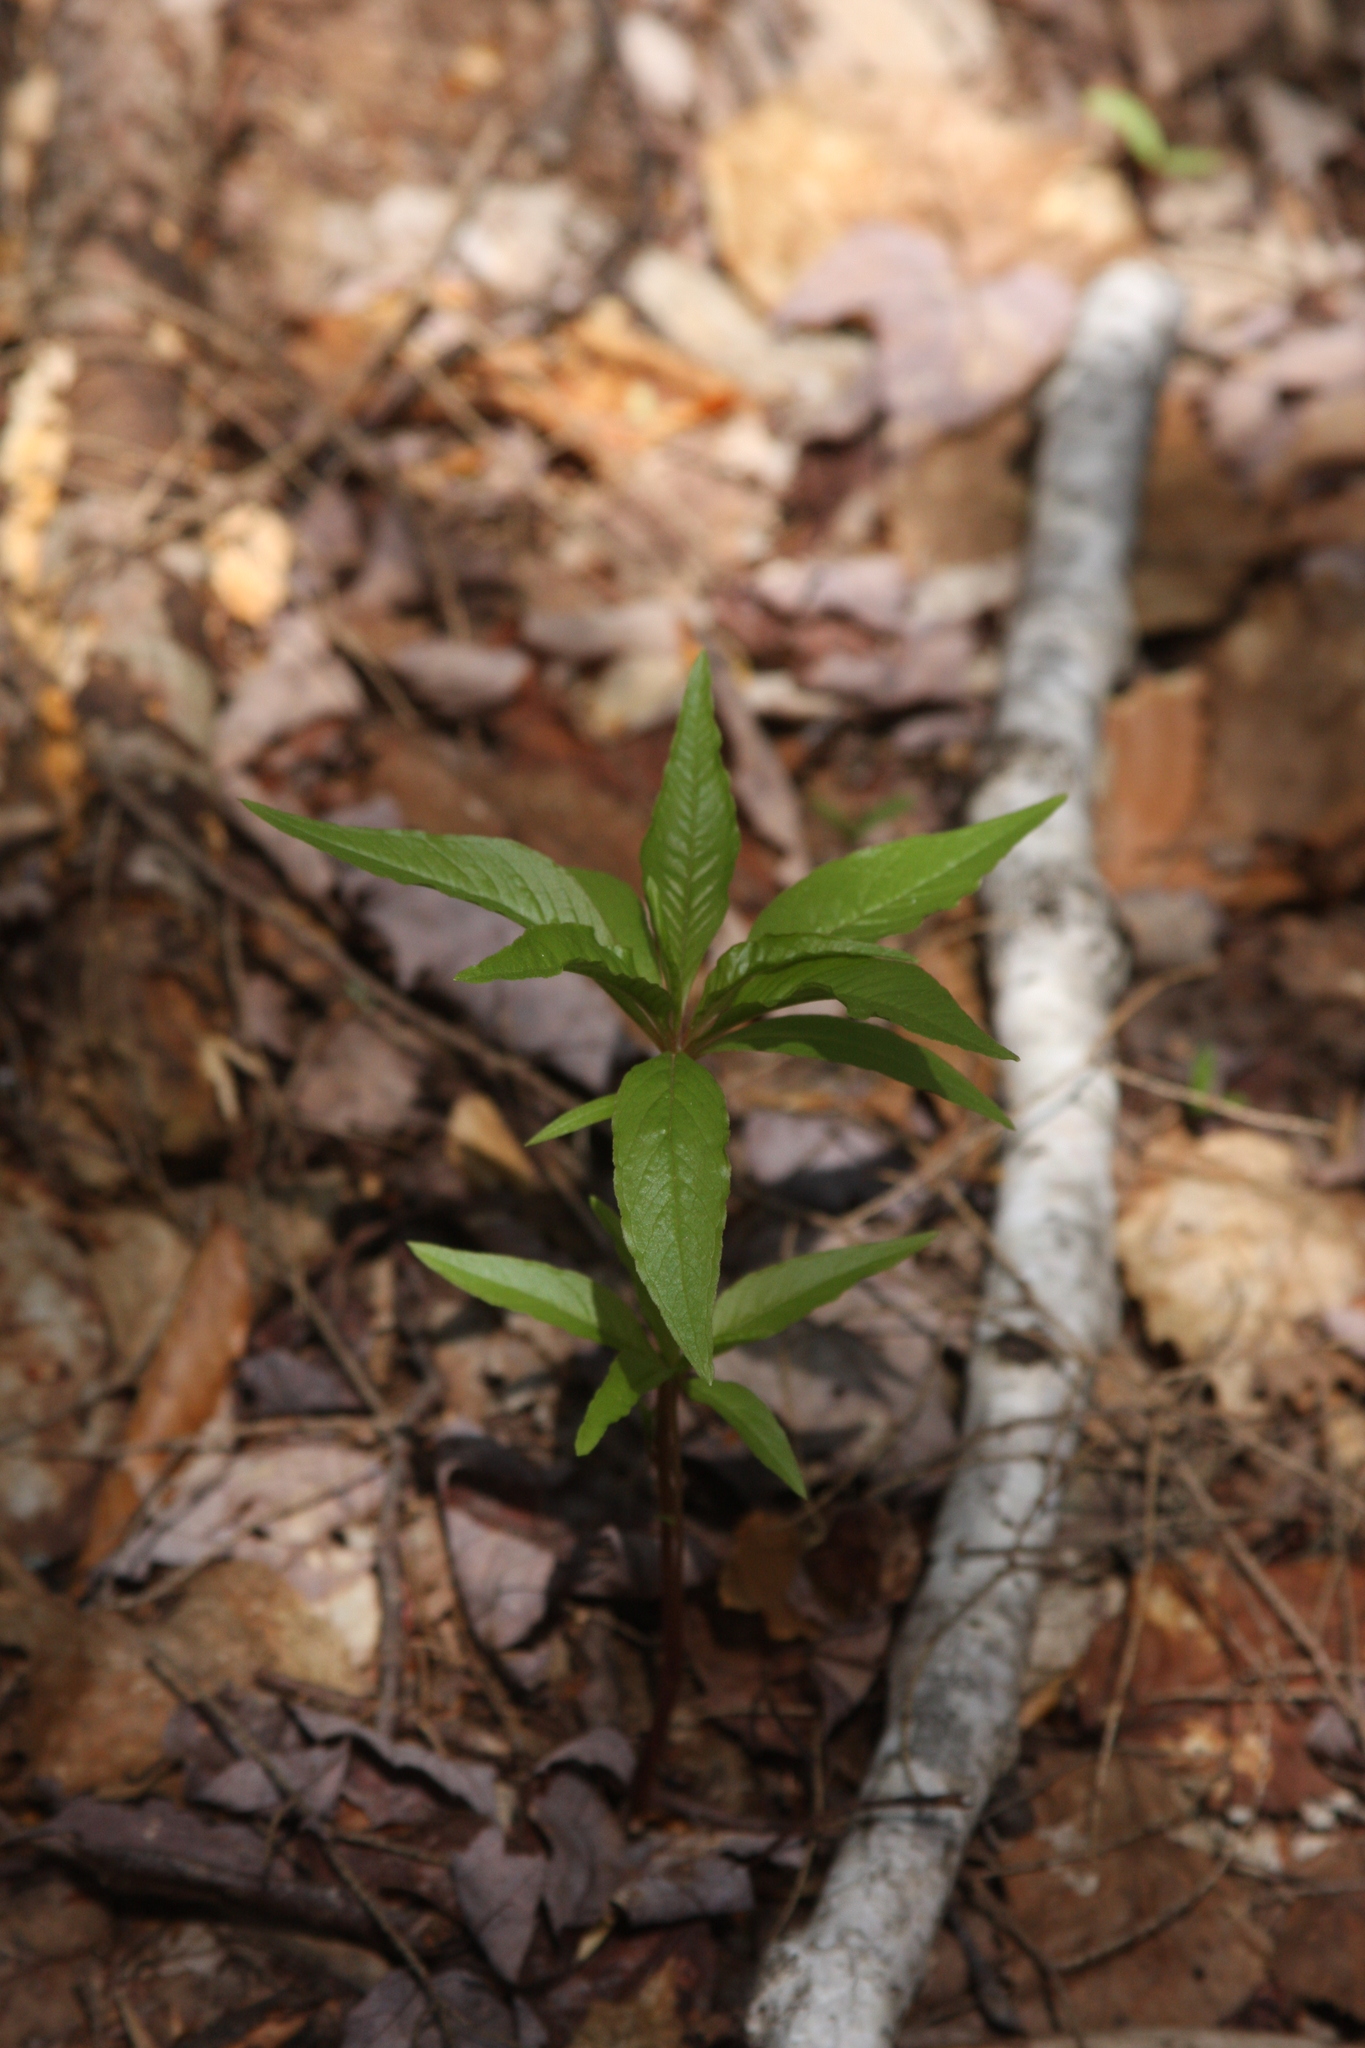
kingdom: Plantae
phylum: Tracheophyta
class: Magnoliopsida
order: Ericales
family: Primulaceae
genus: Lysimachia
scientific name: Lysimachia borealis
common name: American starflower
